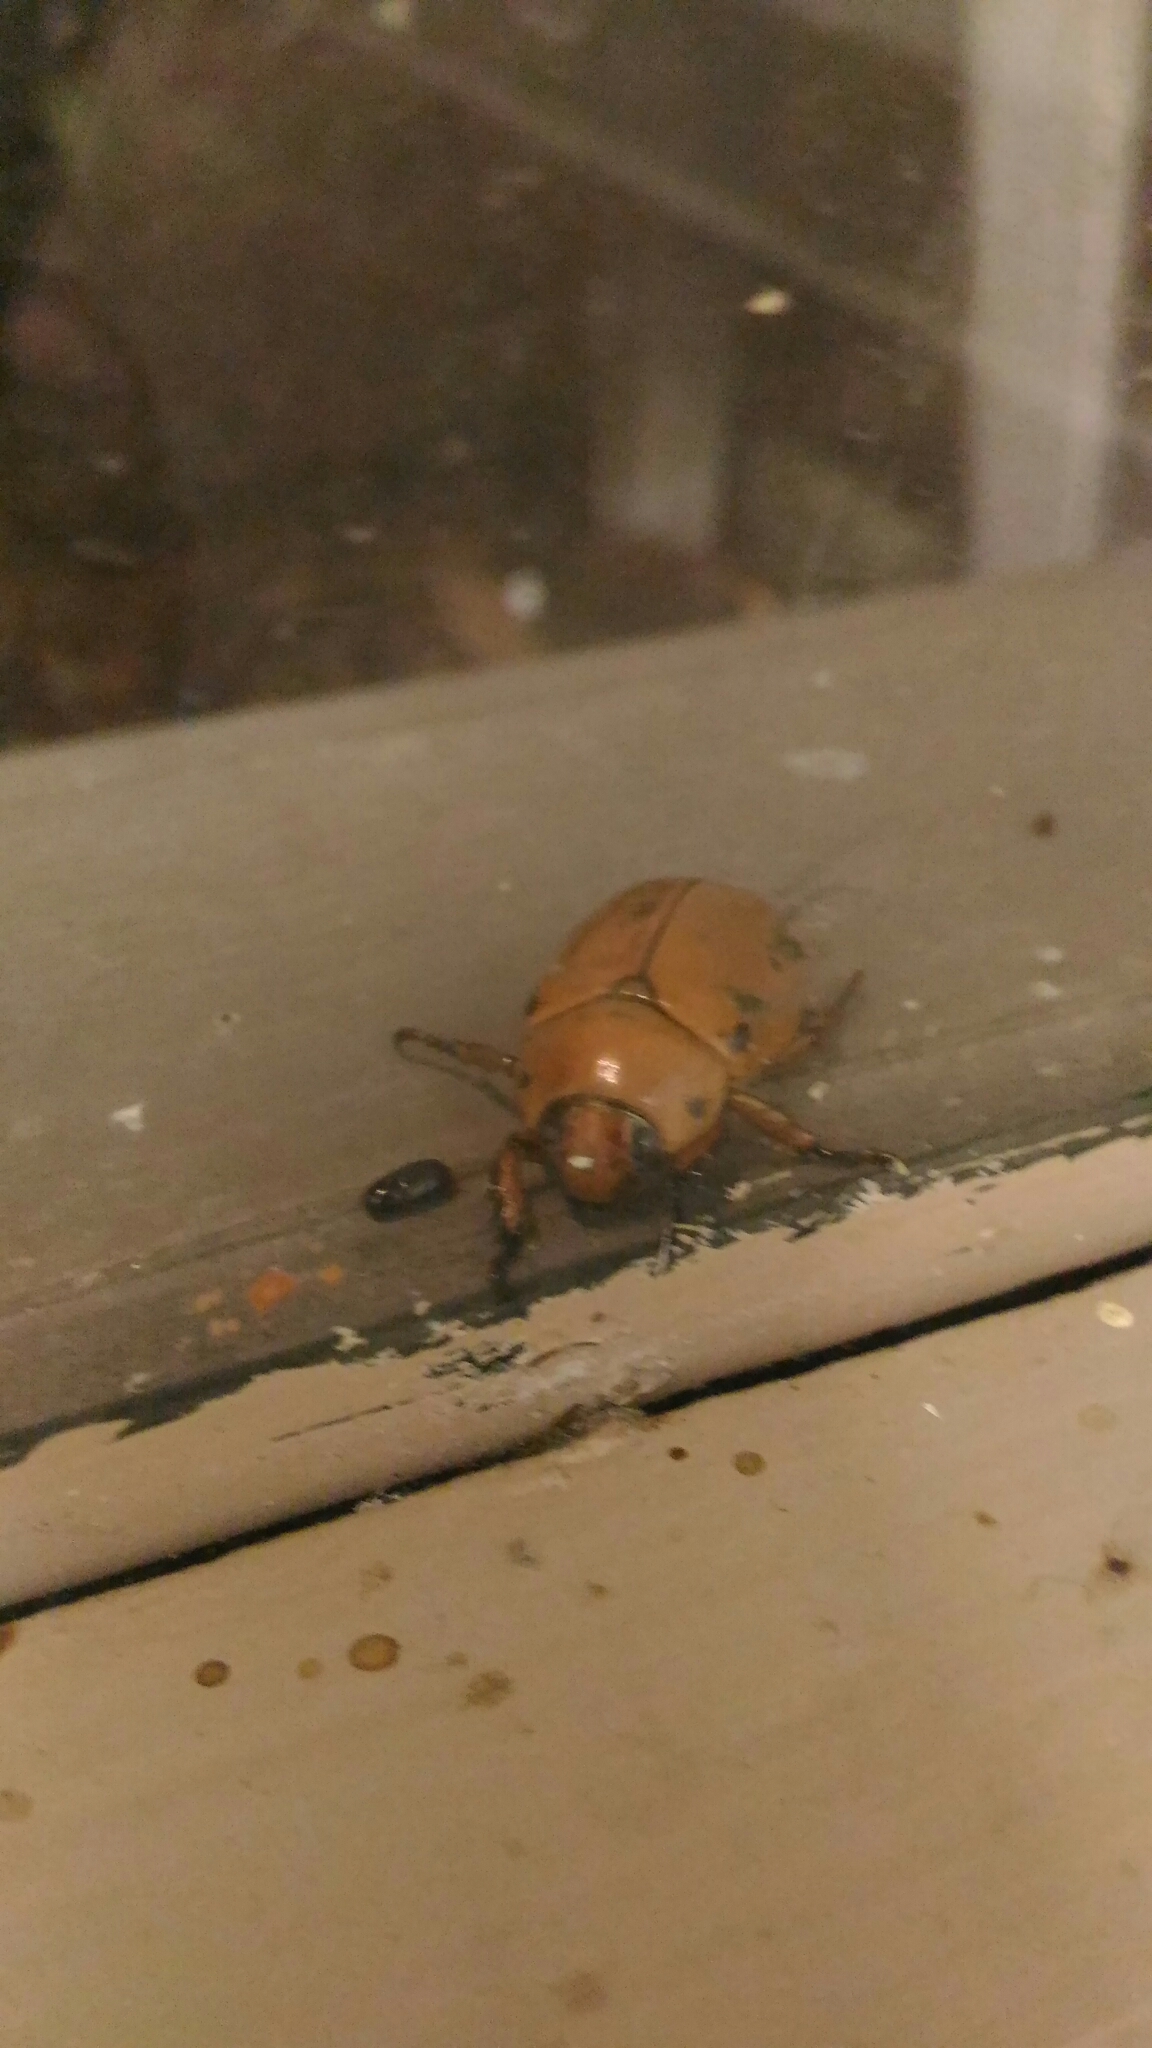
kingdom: Animalia
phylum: Arthropoda
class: Insecta
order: Coleoptera
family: Scarabaeidae
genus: Pelidnota
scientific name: Pelidnota punctata
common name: Grapevine beetle
